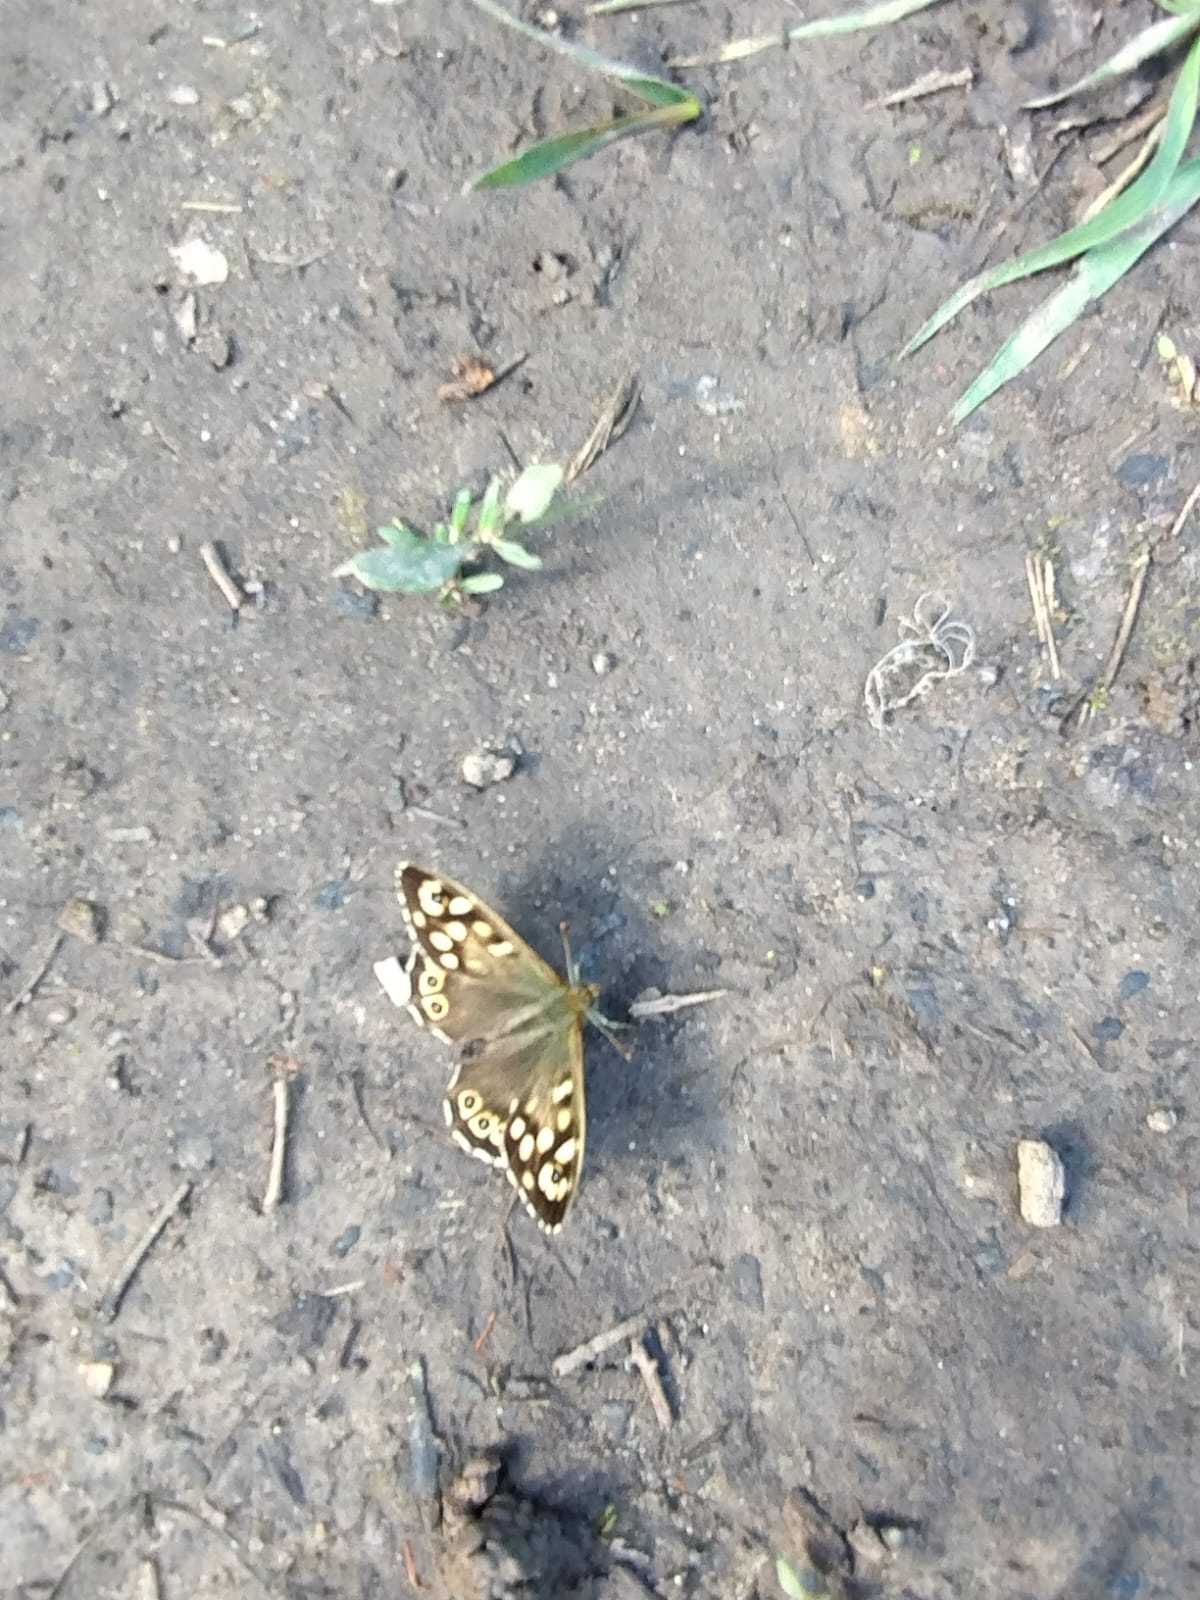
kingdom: Animalia
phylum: Arthropoda
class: Insecta
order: Lepidoptera
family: Nymphalidae
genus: Pararge
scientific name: Pararge aegeria
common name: Speckled wood
